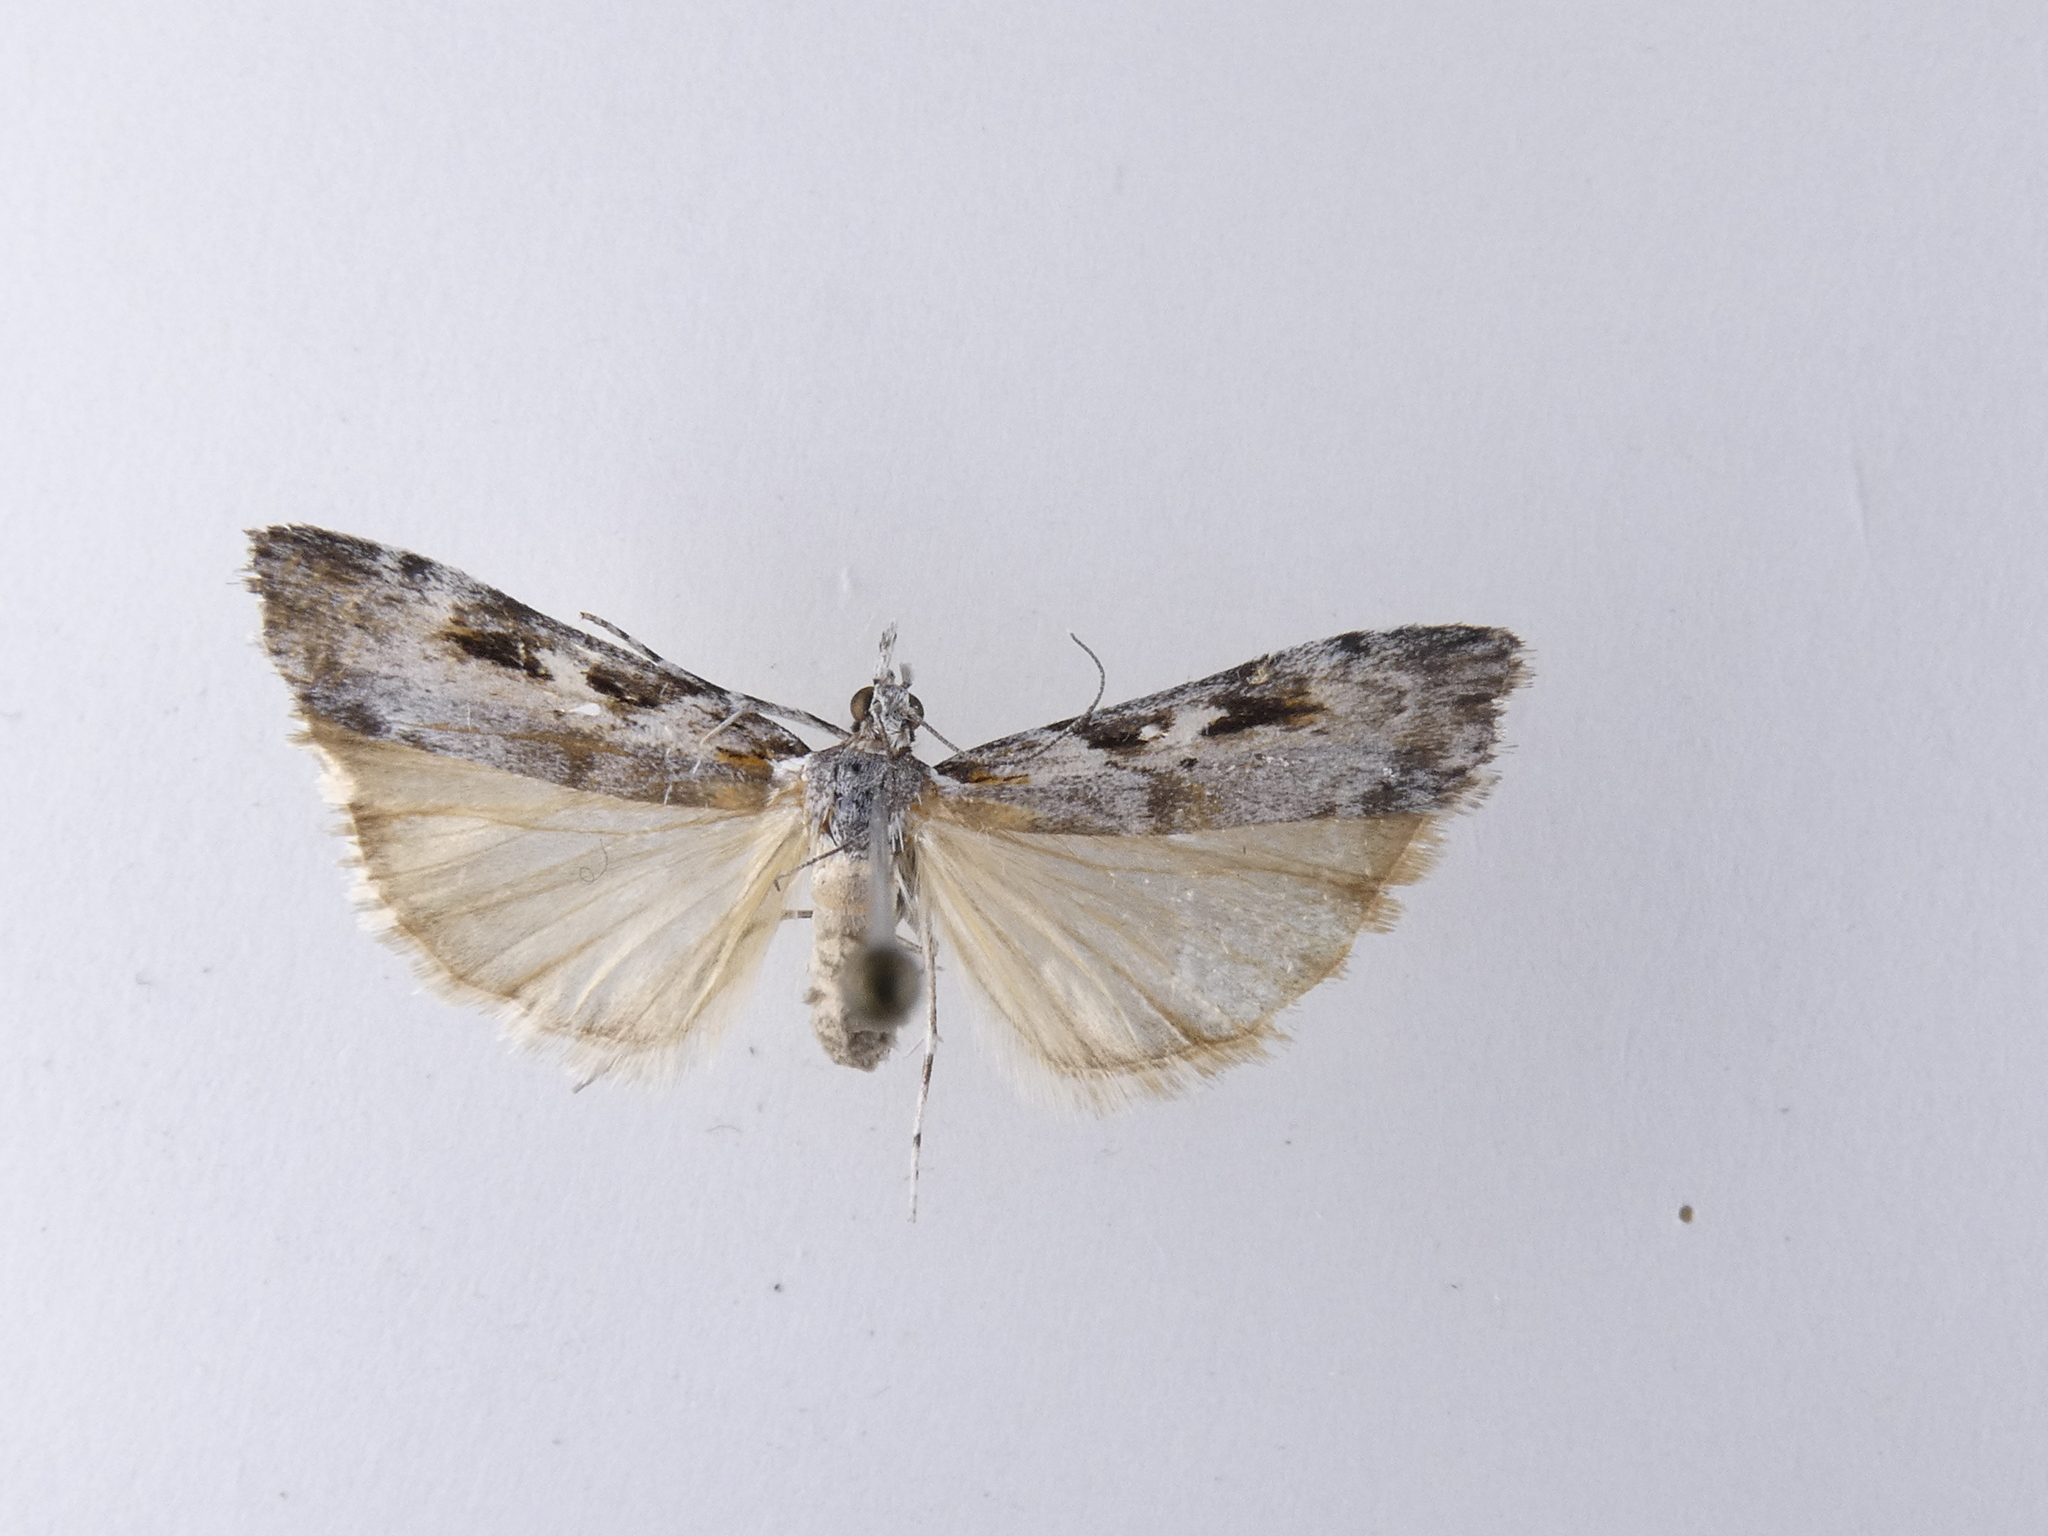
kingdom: Animalia
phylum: Arthropoda
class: Insecta
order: Lepidoptera
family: Crambidae
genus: Scoparia
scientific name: Scoparia halopis
